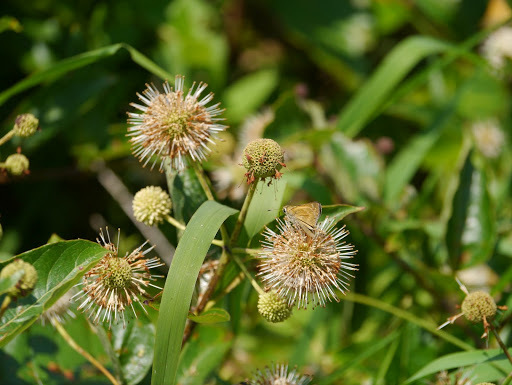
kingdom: Plantae
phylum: Tracheophyta
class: Magnoliopsida
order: Gentianales
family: Rubiaceae
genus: Cephalanthus
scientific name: Cephalanthus occidentalis
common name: Button-willow
